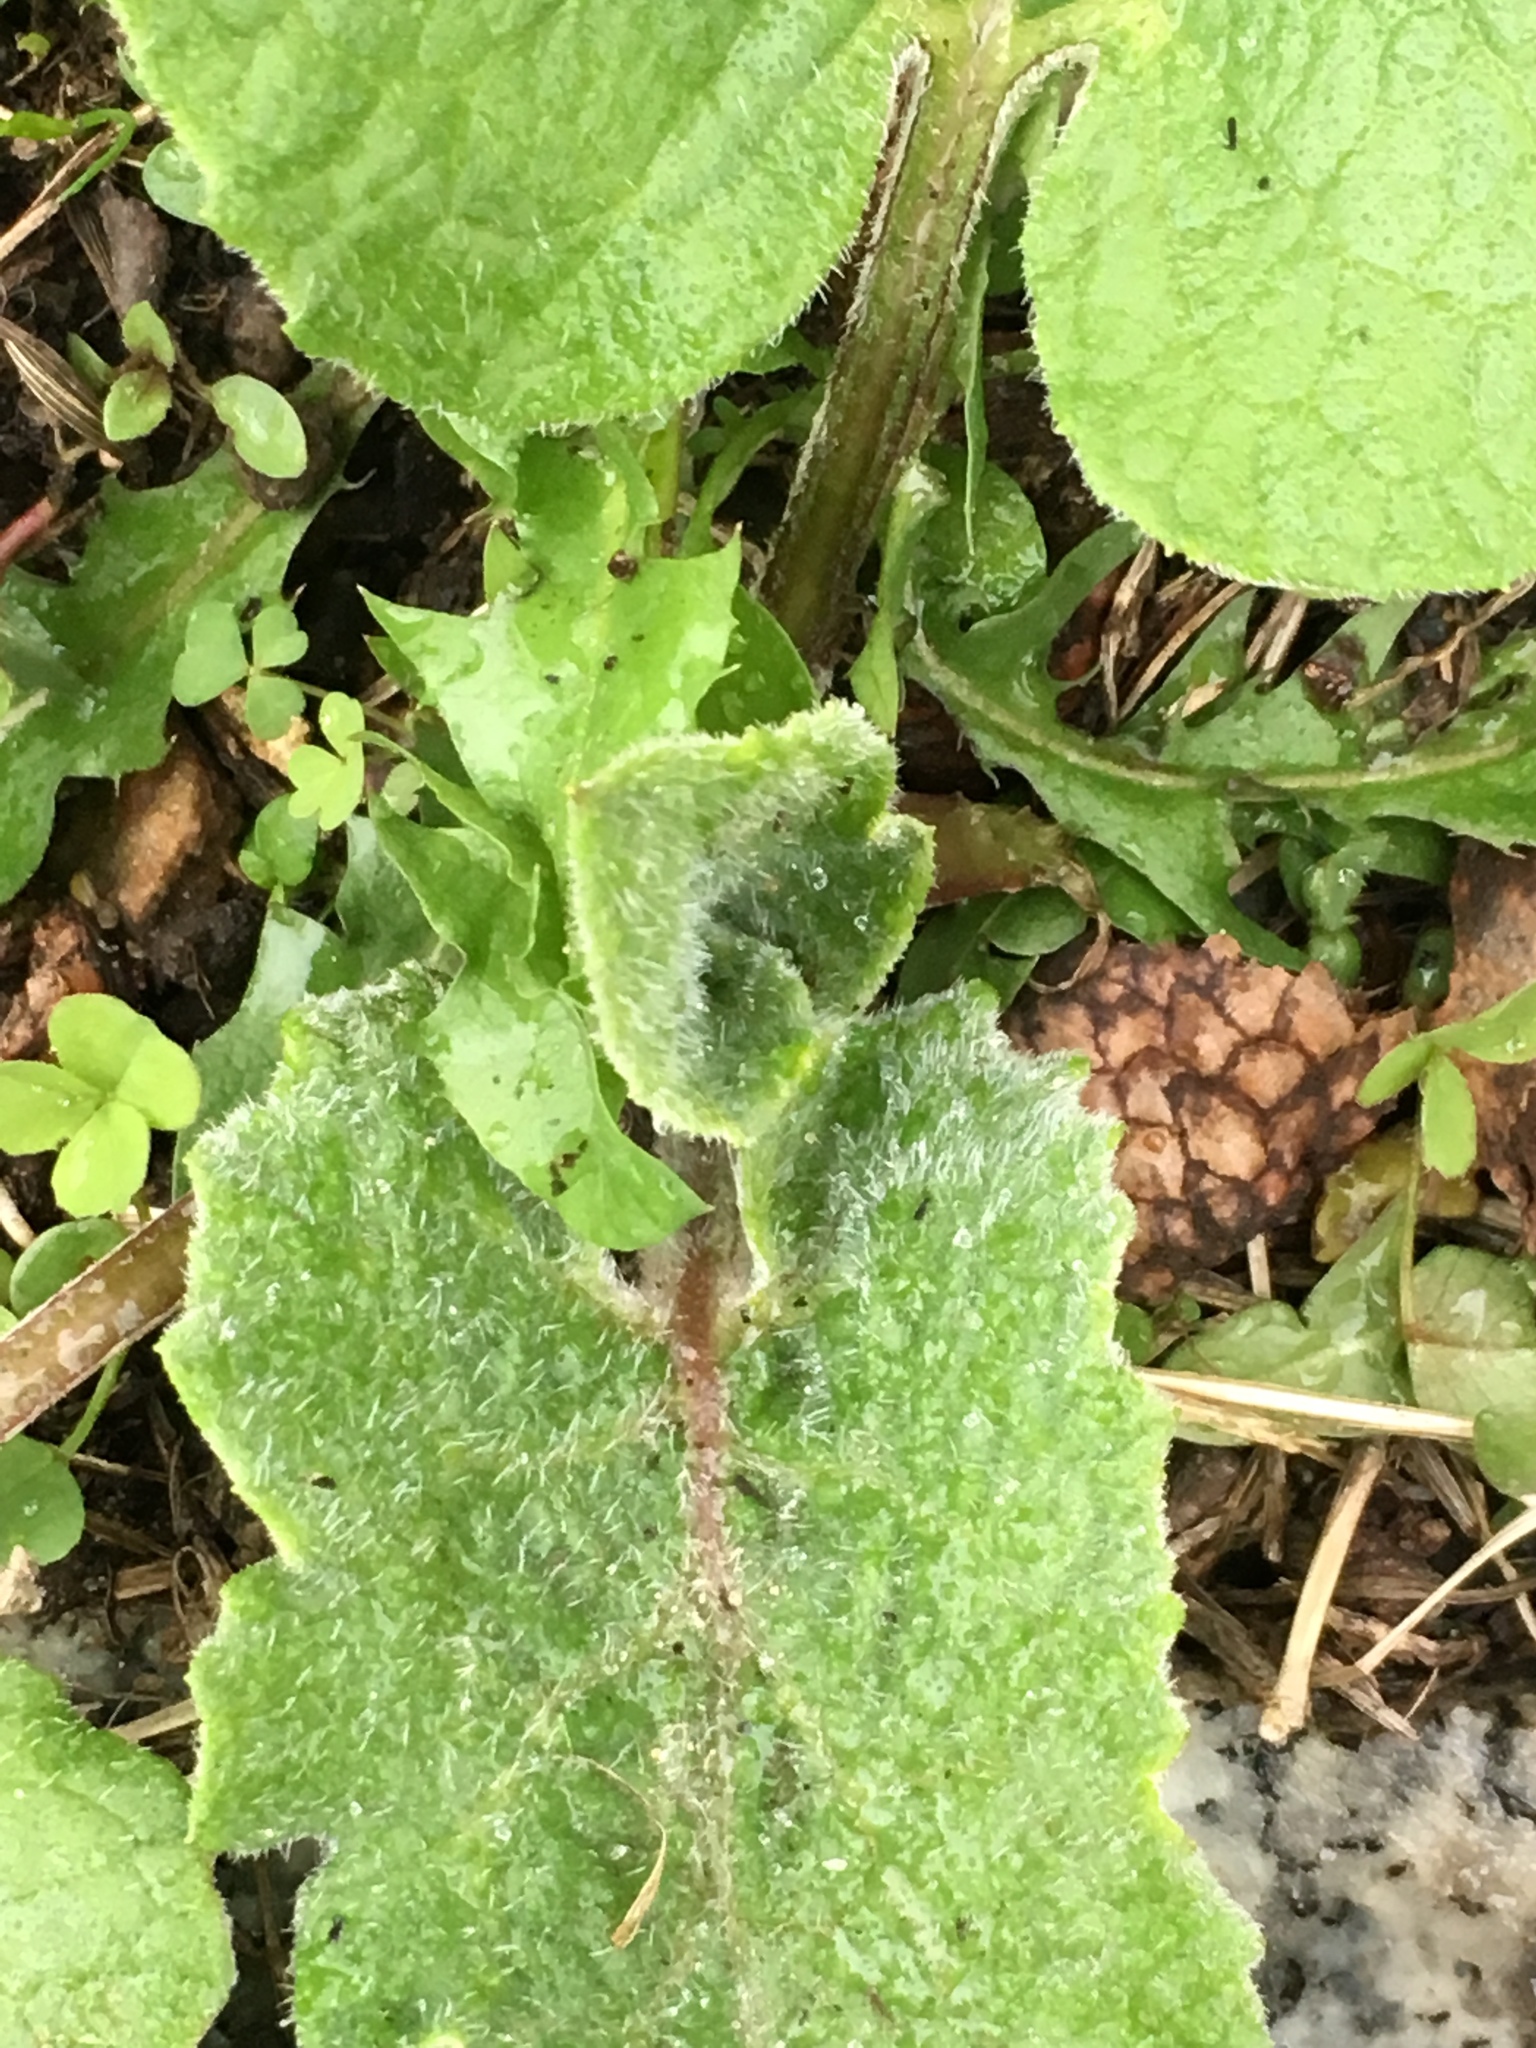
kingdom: Plantae
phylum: Tracheophyta
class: Magnoliopsida
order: Asterales
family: Asteraceae
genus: Arctium
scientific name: Arctium
